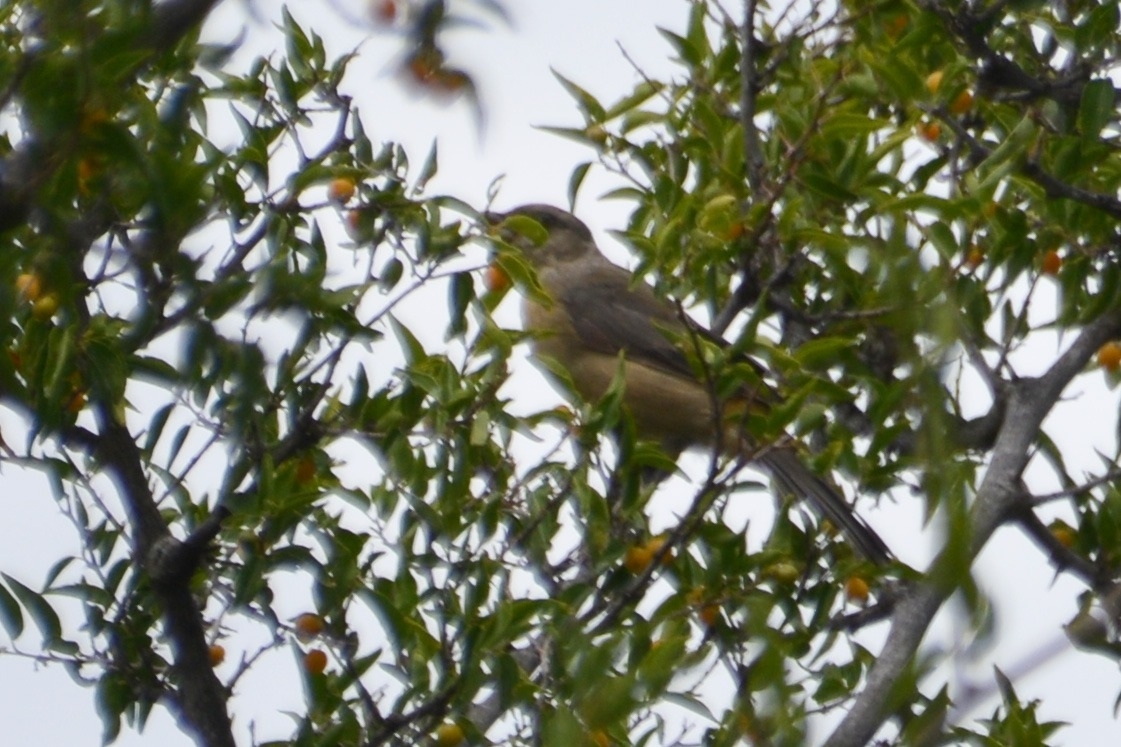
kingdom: Animalia
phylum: Chordata
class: Aves
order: Passeriformes
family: Thraupidae
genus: Rauenia
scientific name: Rauenia bonariensis
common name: Blue-and-yellow tanager
